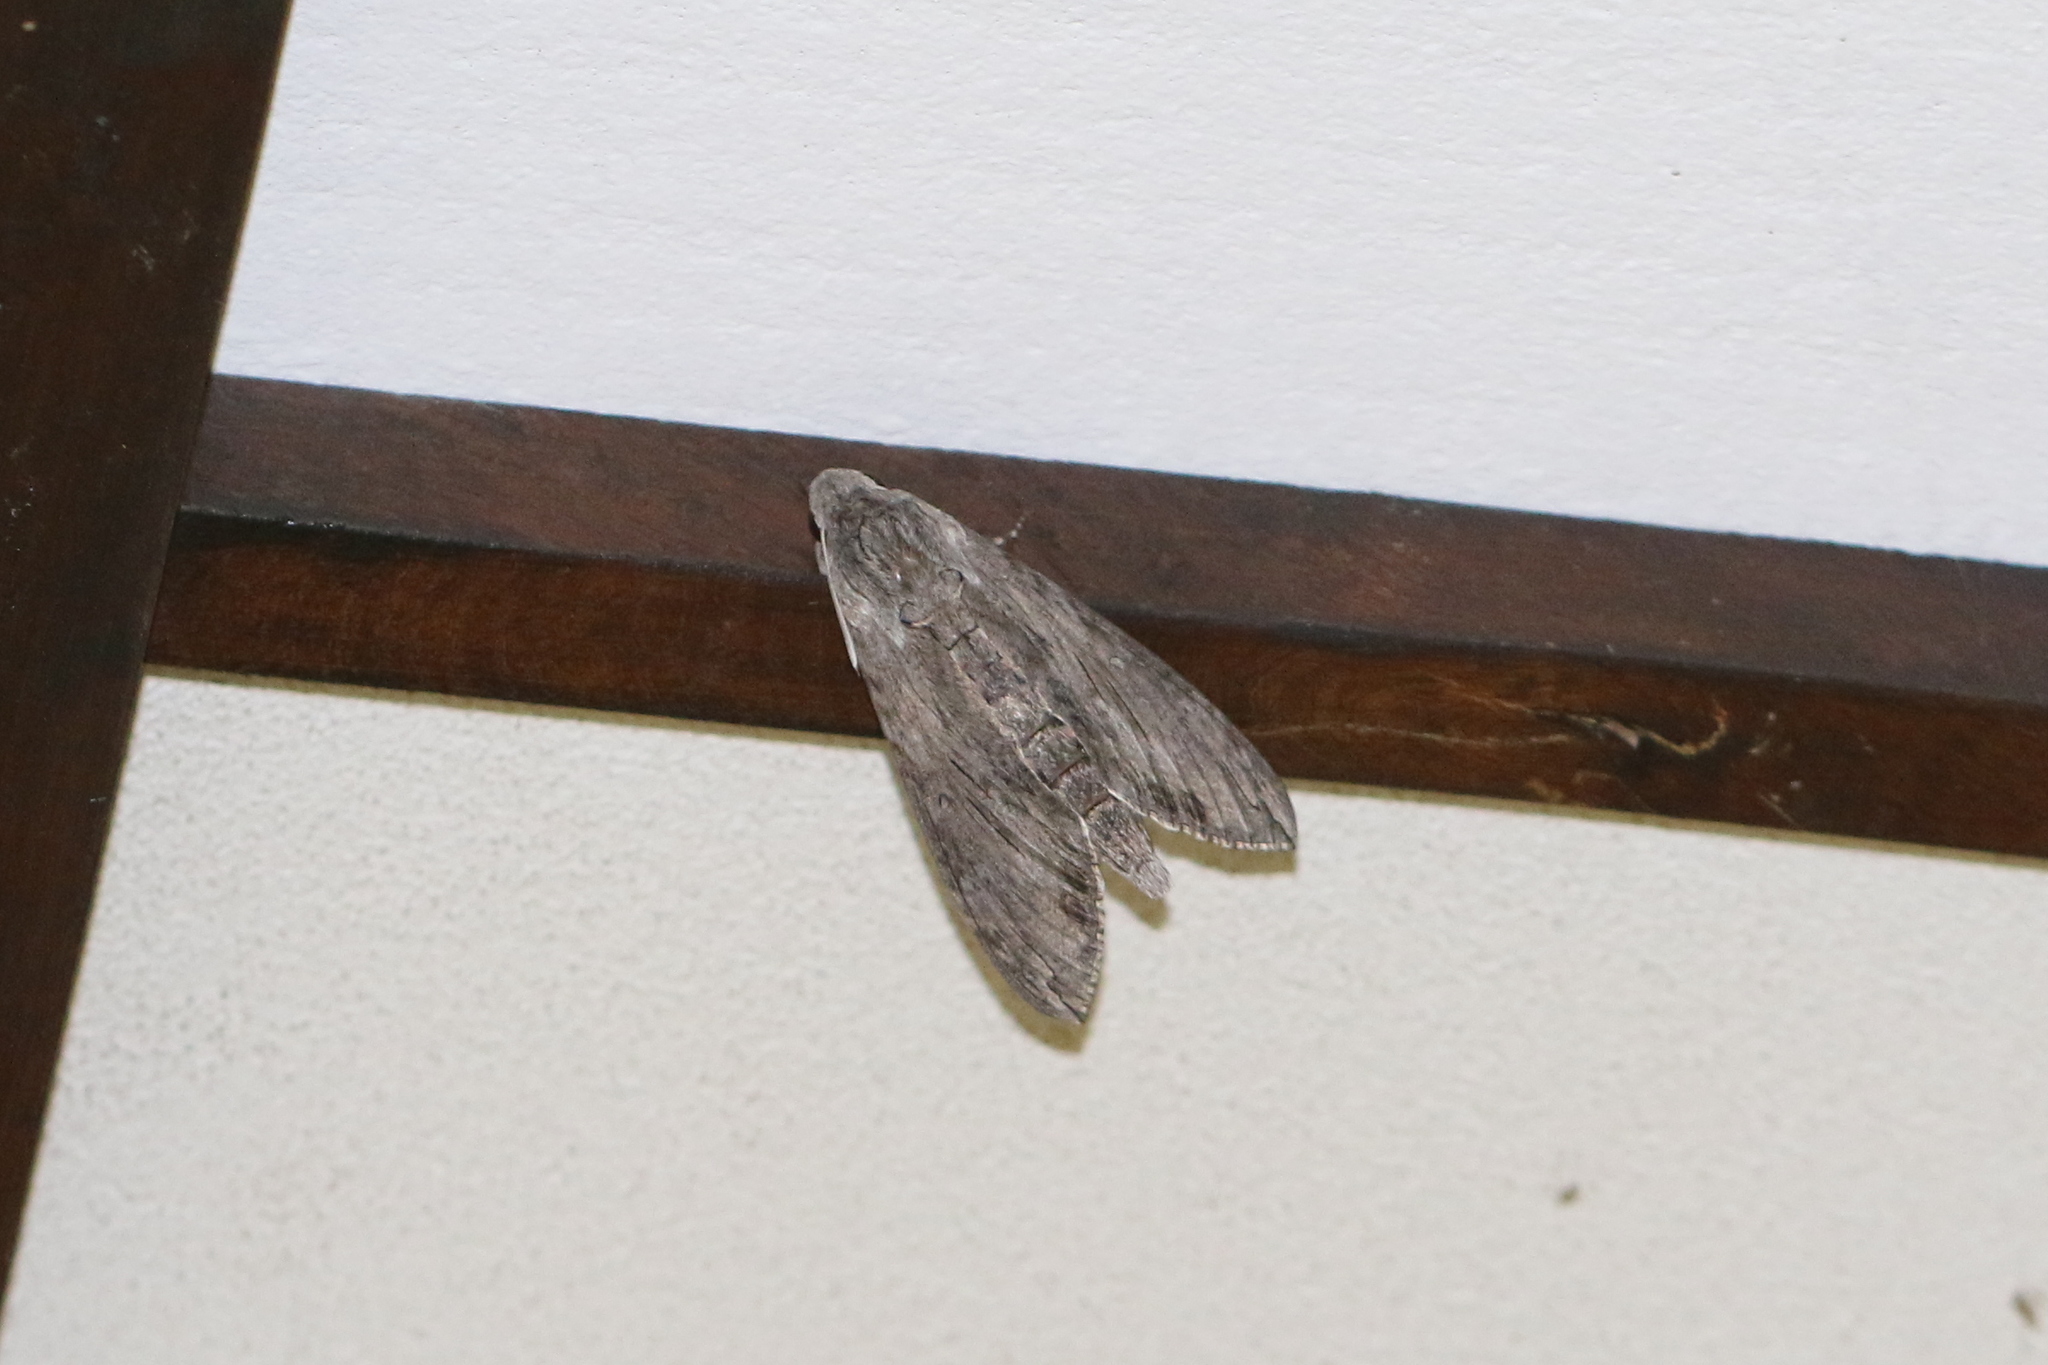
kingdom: Animalia
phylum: Arthropoda
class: Insecta
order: Lepidoptera
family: Sphingidae
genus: Agrius
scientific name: Agrius convolvuli
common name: Convolvulus hawkmoth
